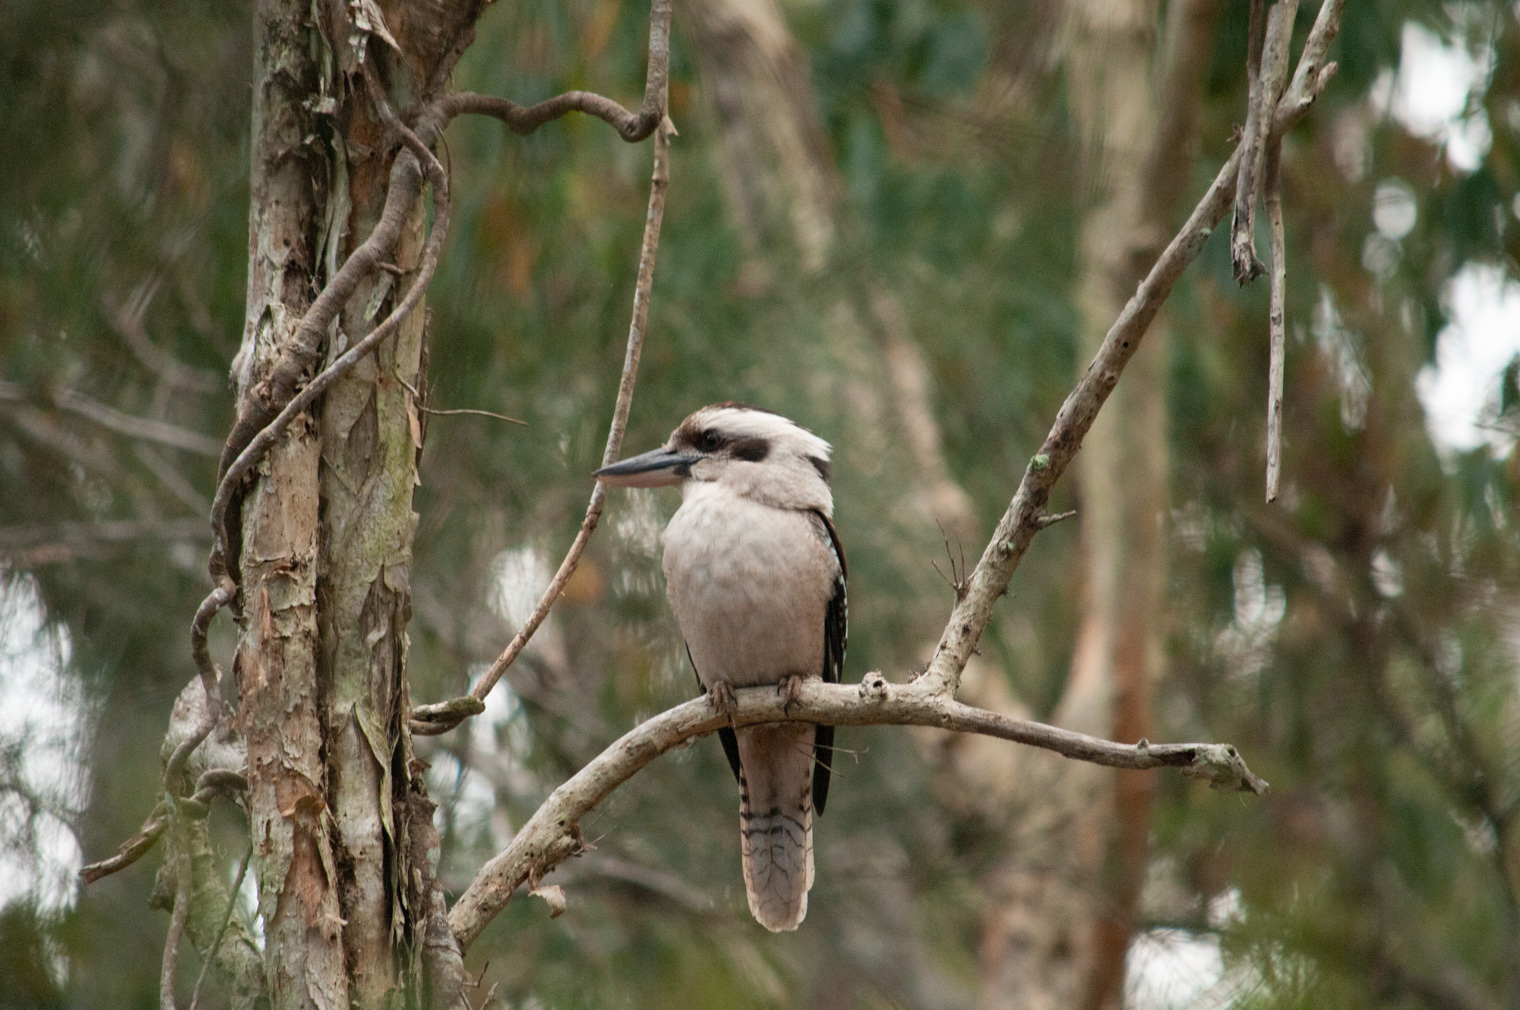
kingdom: Animalia
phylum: Chordata
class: Aves
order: Coraciiformes
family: Alcedinidae
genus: Dacelo
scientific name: Dacelo novaeguineae
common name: Laughing kookaburra
